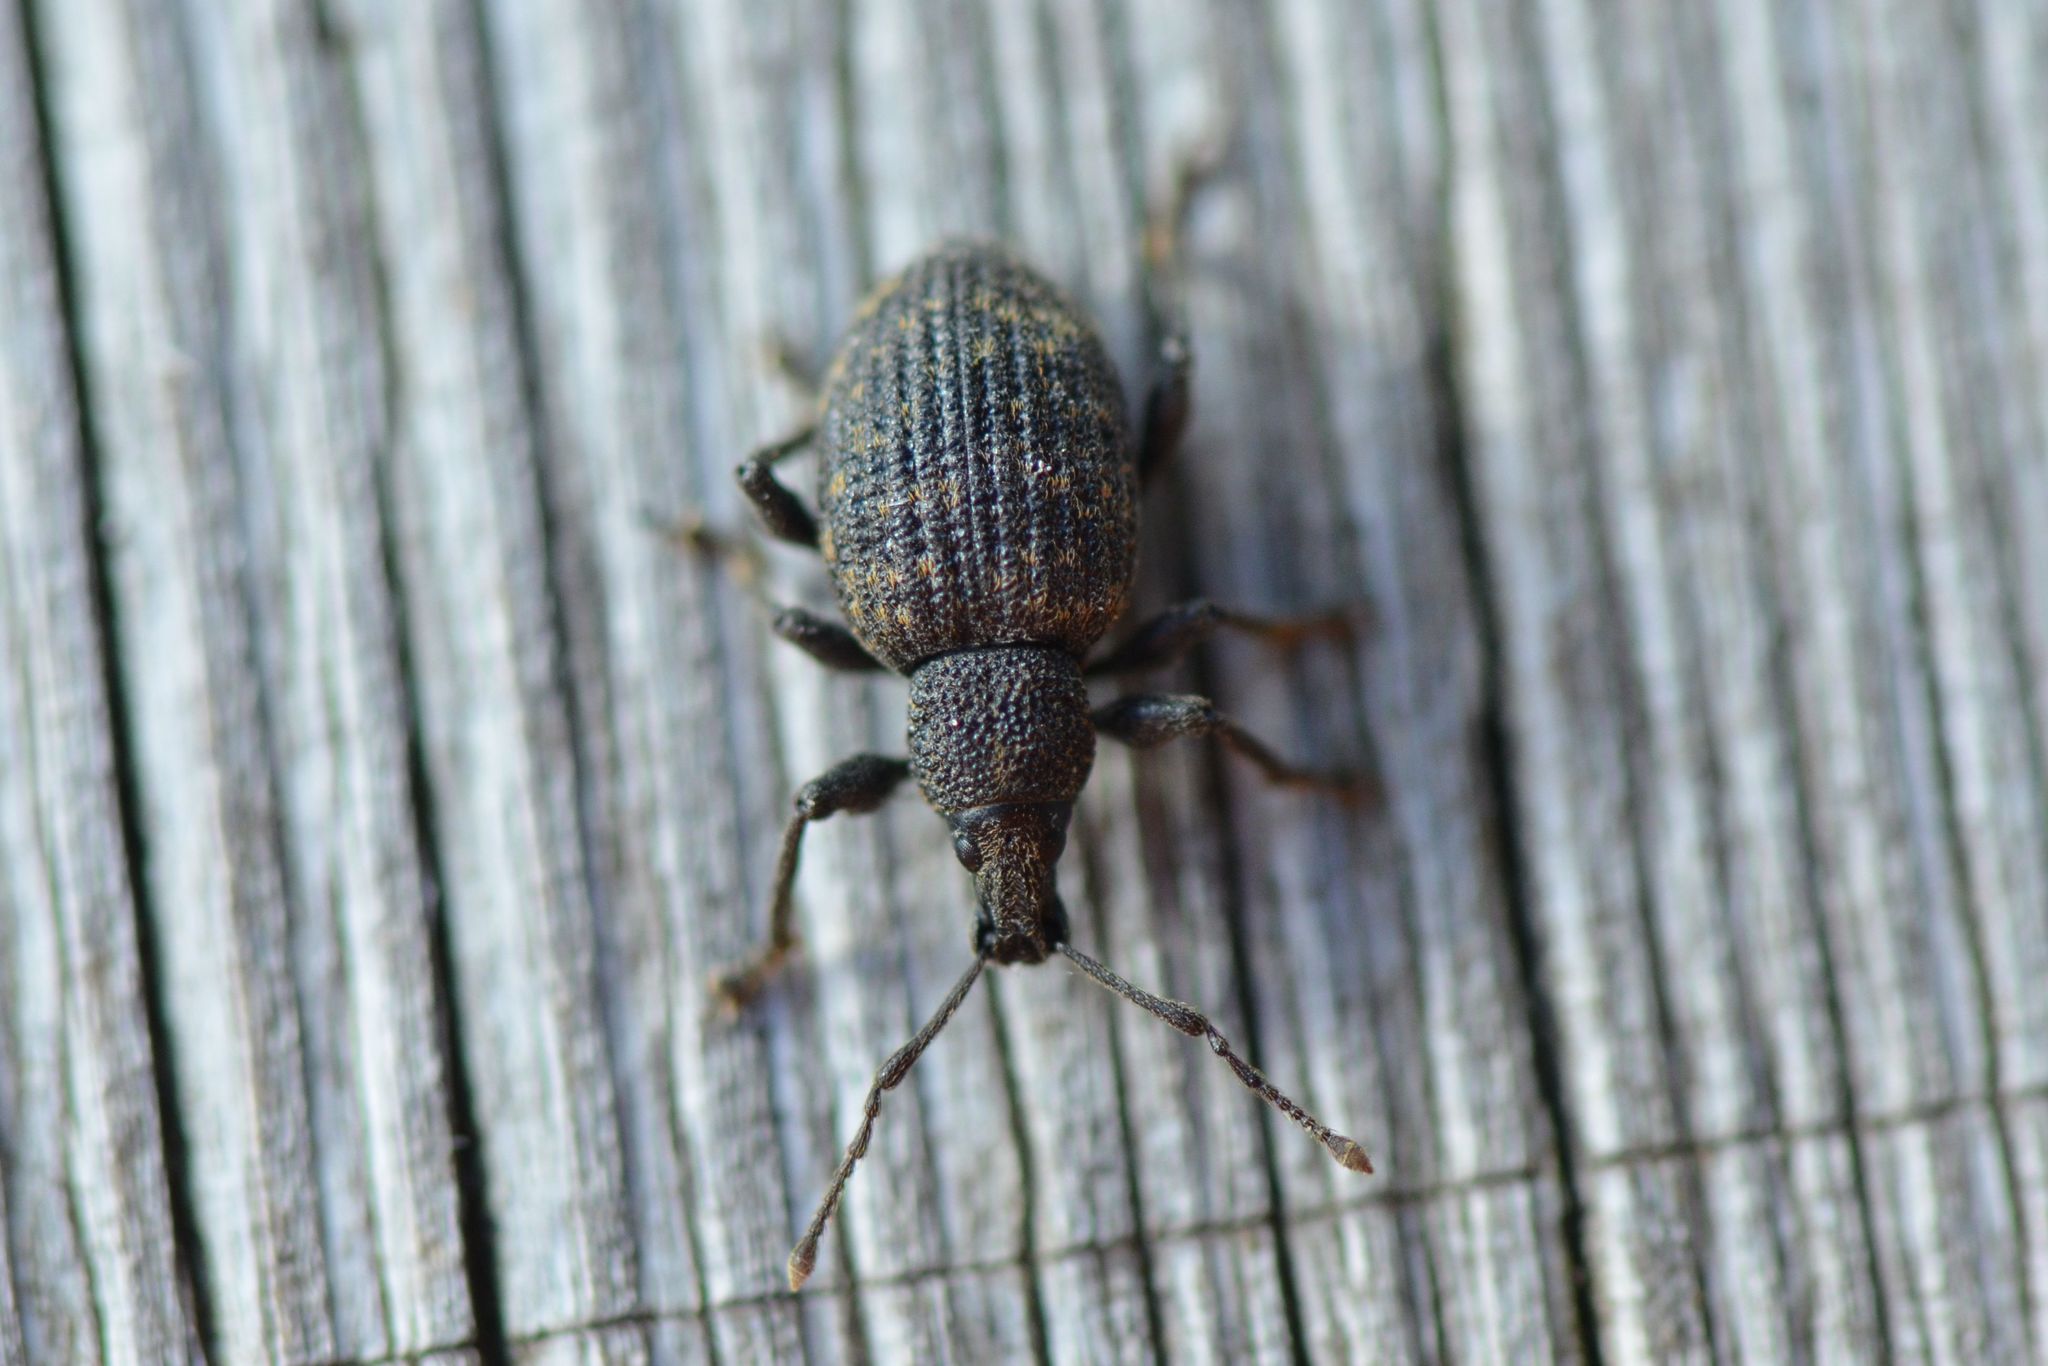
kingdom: Animalia
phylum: Arthropoda
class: Insecta
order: Coleoptera
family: Curculionidae
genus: Otiorhynchus
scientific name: Otiorhynchus sulcatus
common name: Black vine weevil
